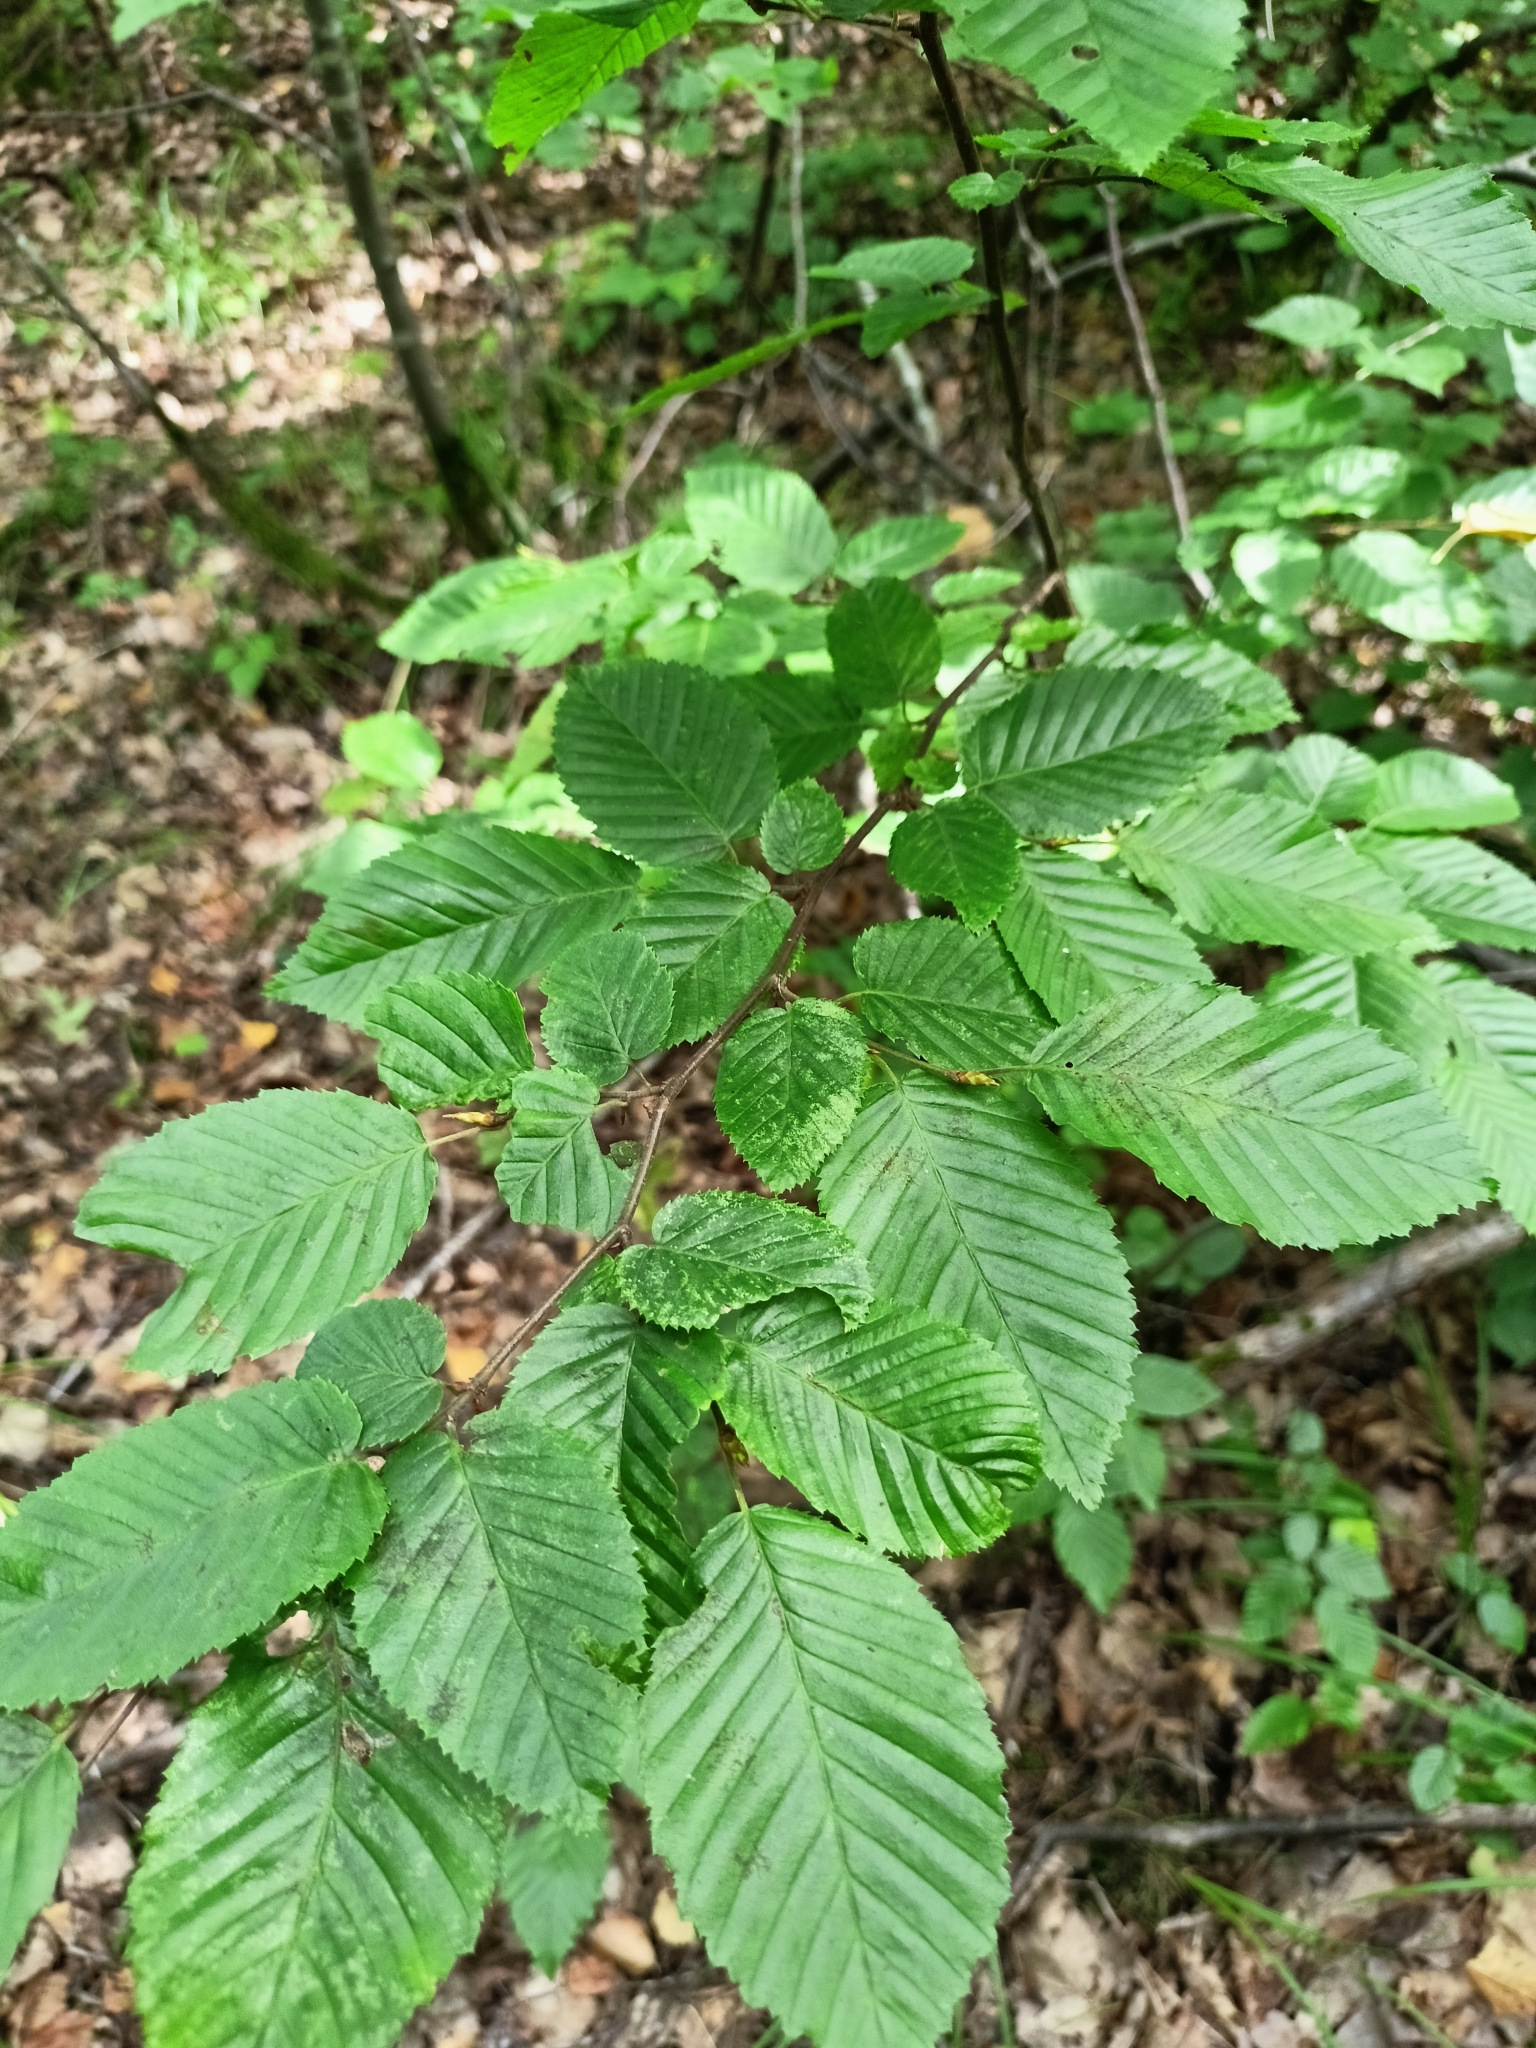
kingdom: Plantae
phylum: Tracheophyta
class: Magnoliopsida
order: Fagales
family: Betulaceae
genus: Carpinus
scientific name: Carpinus betulus
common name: Hornbeam
